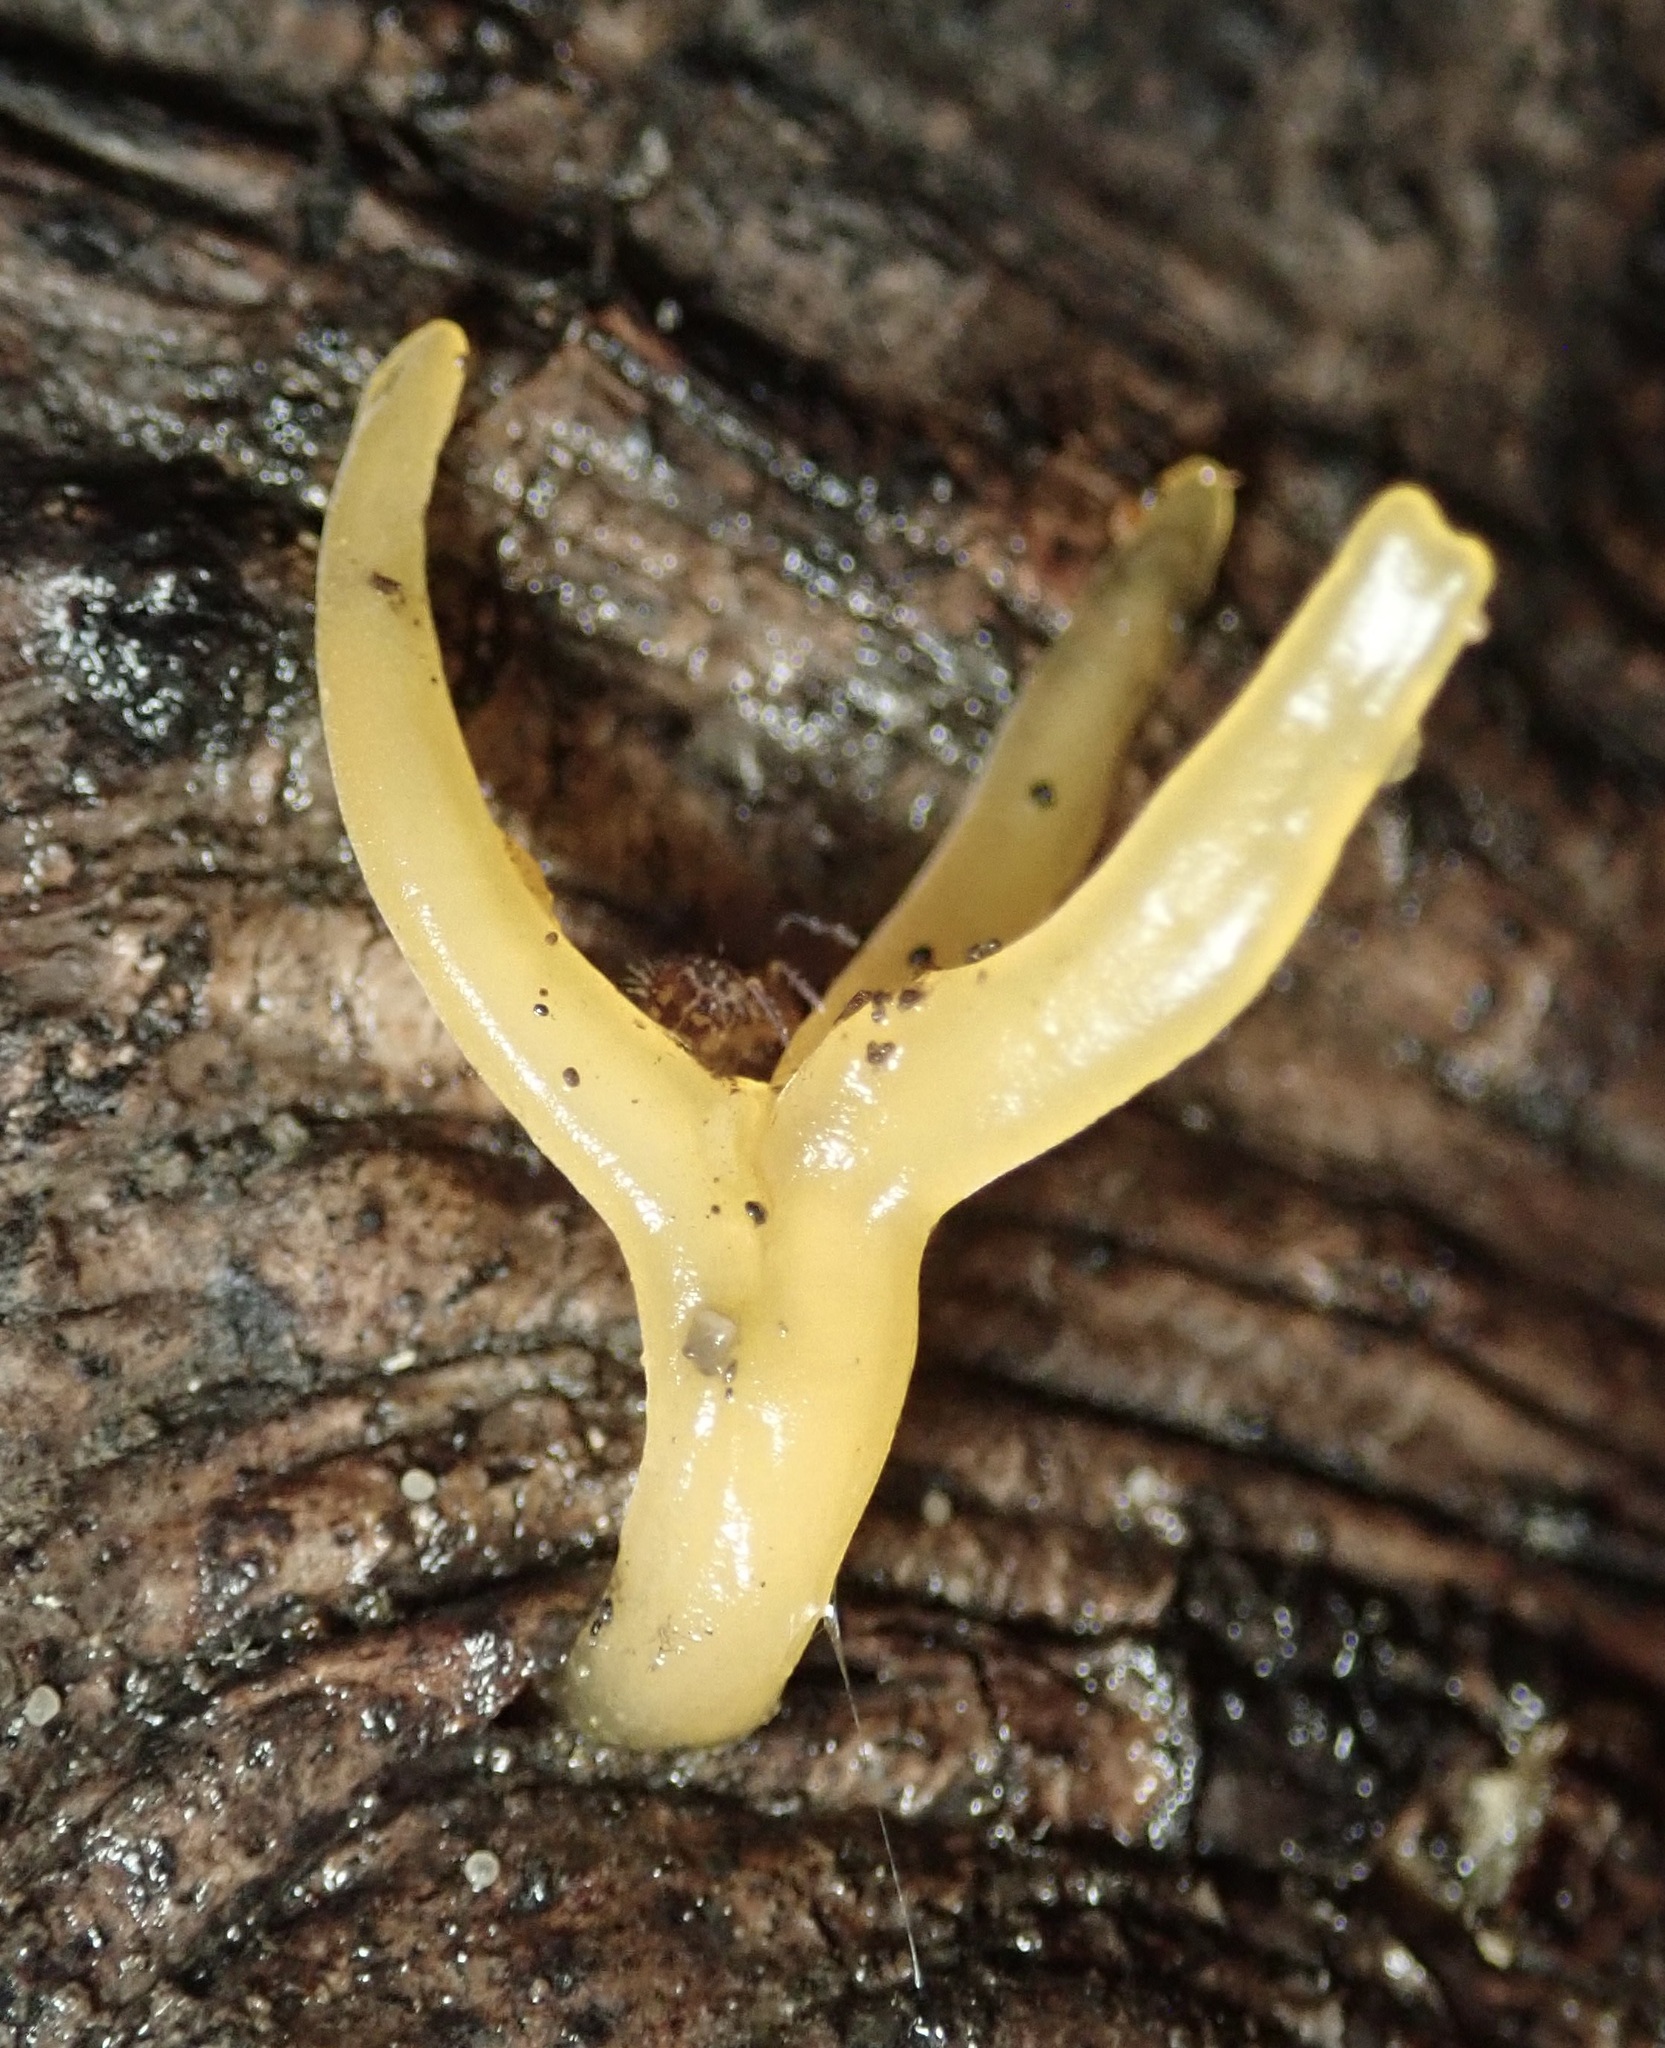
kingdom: Fungi
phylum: Basidiomycota
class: Dacrymycetes
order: Dacrymycetales
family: Dacrymycetaceae
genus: Calocera
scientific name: Calocera cornea
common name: Small stagshorn
